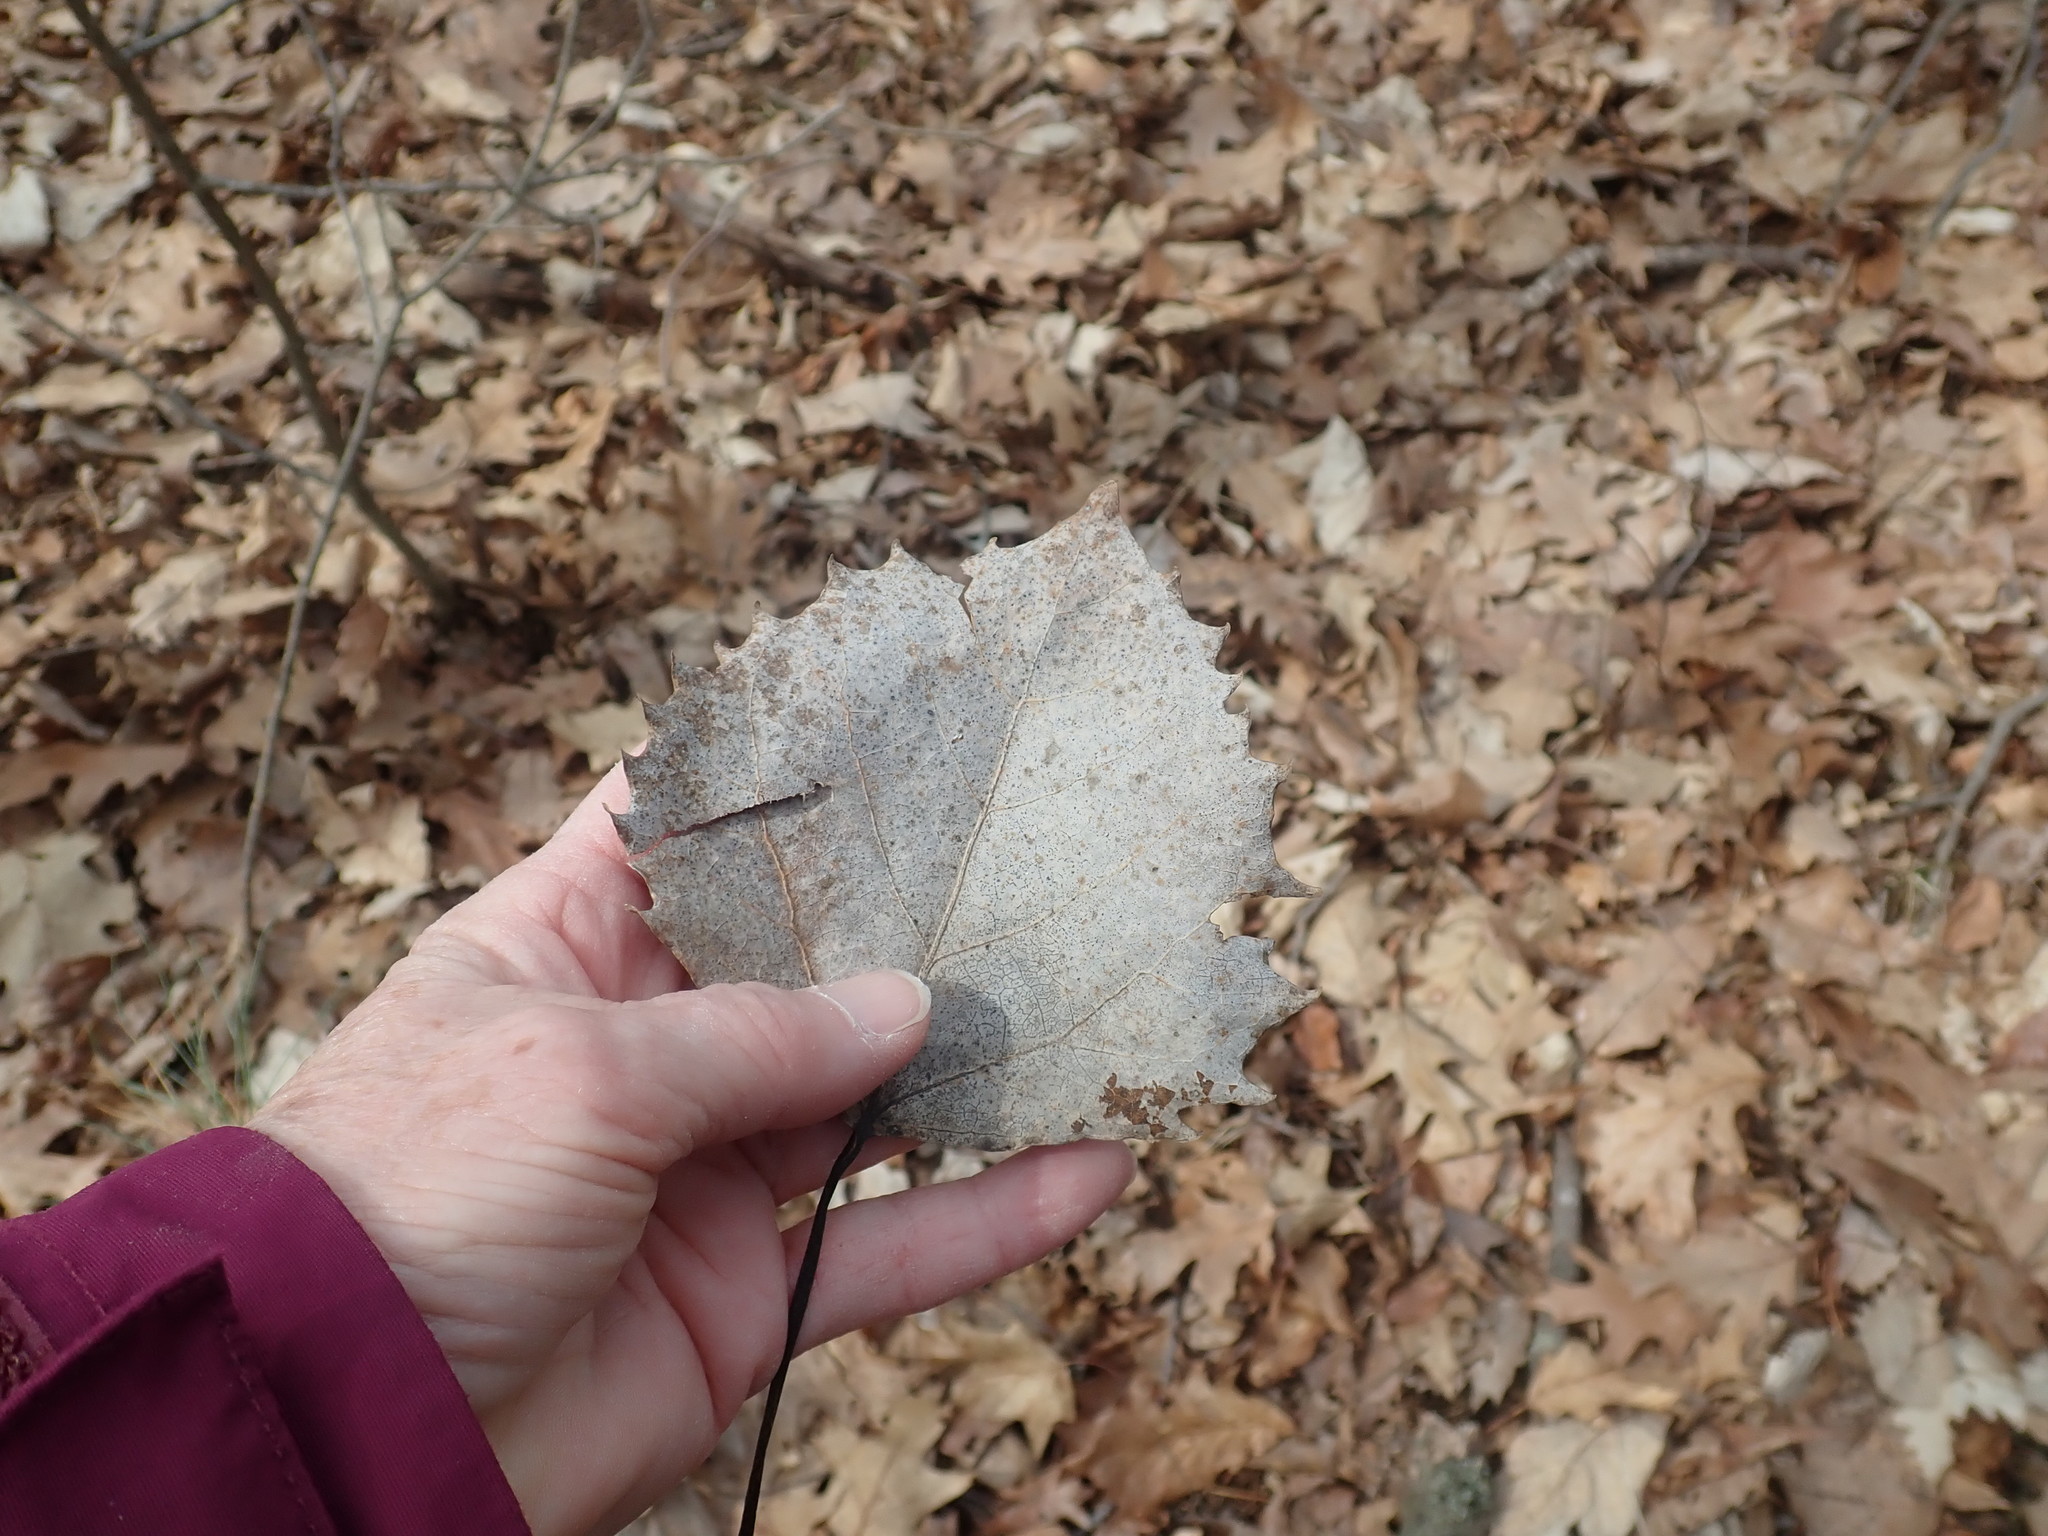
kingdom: Plantae
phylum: Tracheophyta
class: Magnoliopsida
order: Malpighiales
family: Salicaceae
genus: Populus
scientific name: Populus grandidentata
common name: Bigtooth aspen
